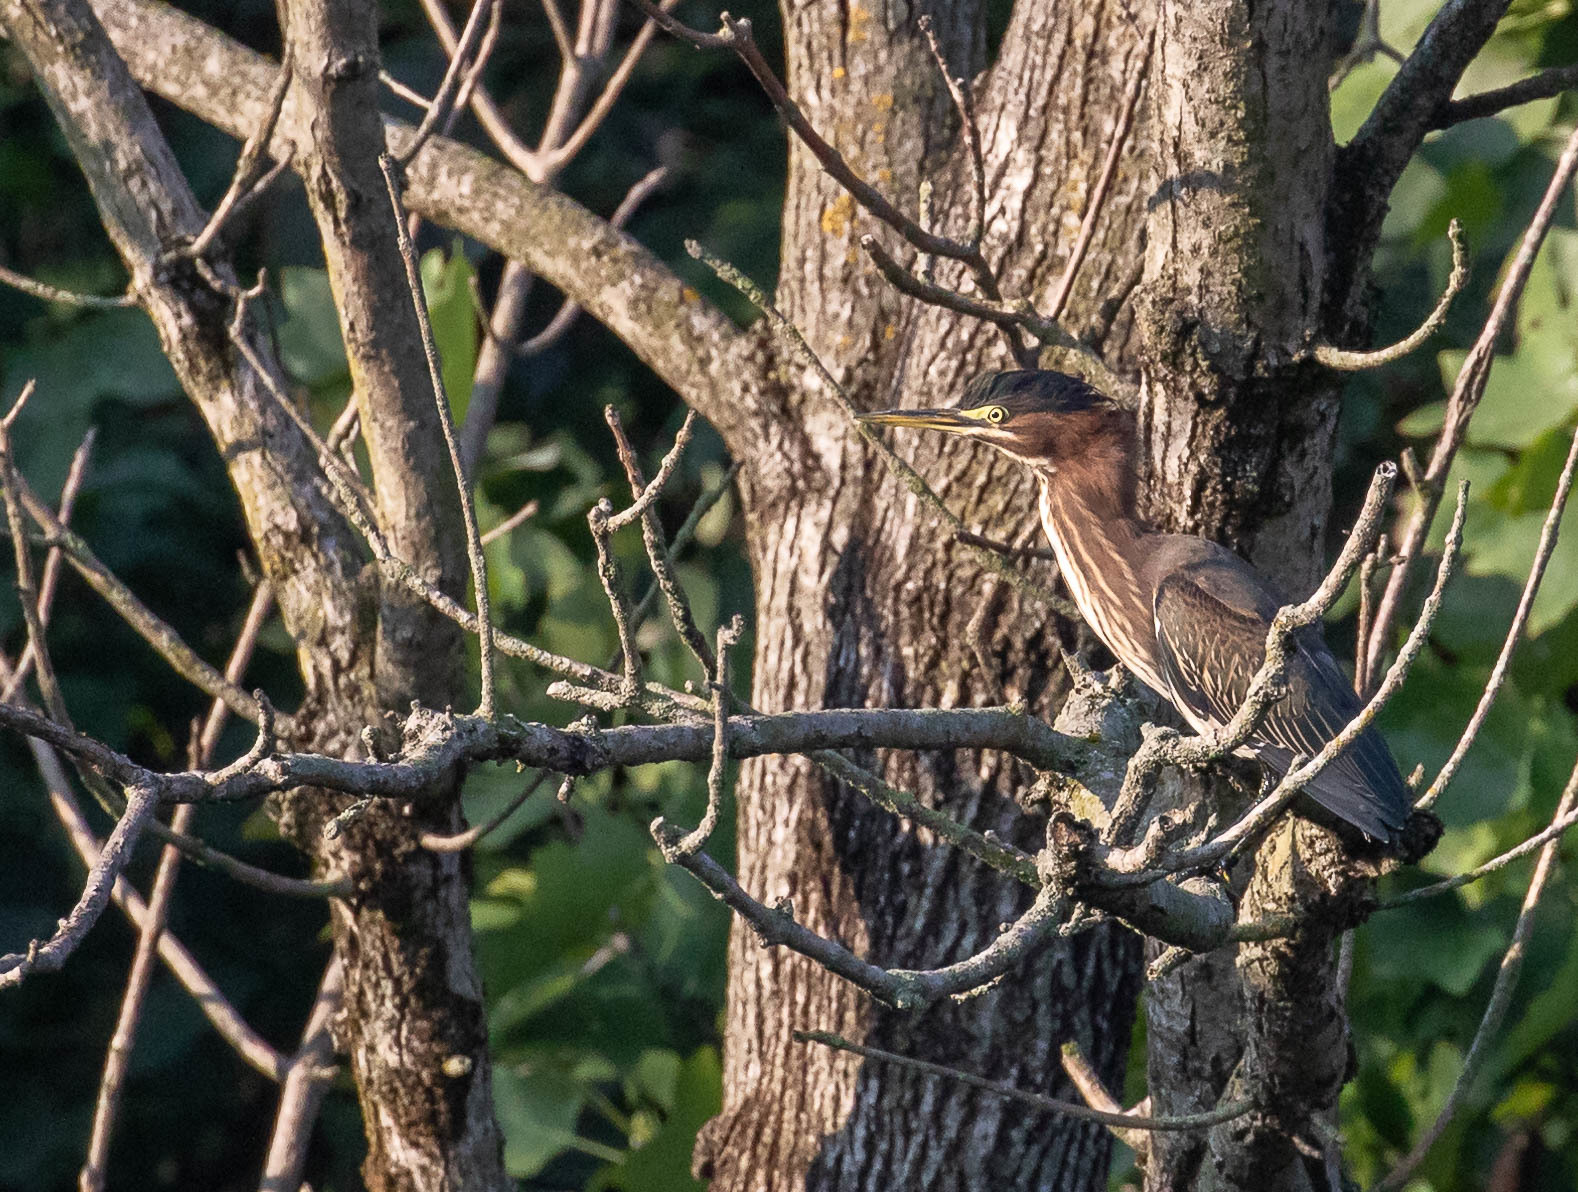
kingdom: Animalia
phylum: Chordata
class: Aves
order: Pelecaniformes
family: Ardeidae
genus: Butorides
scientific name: Butorides virescens
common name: Green heron
